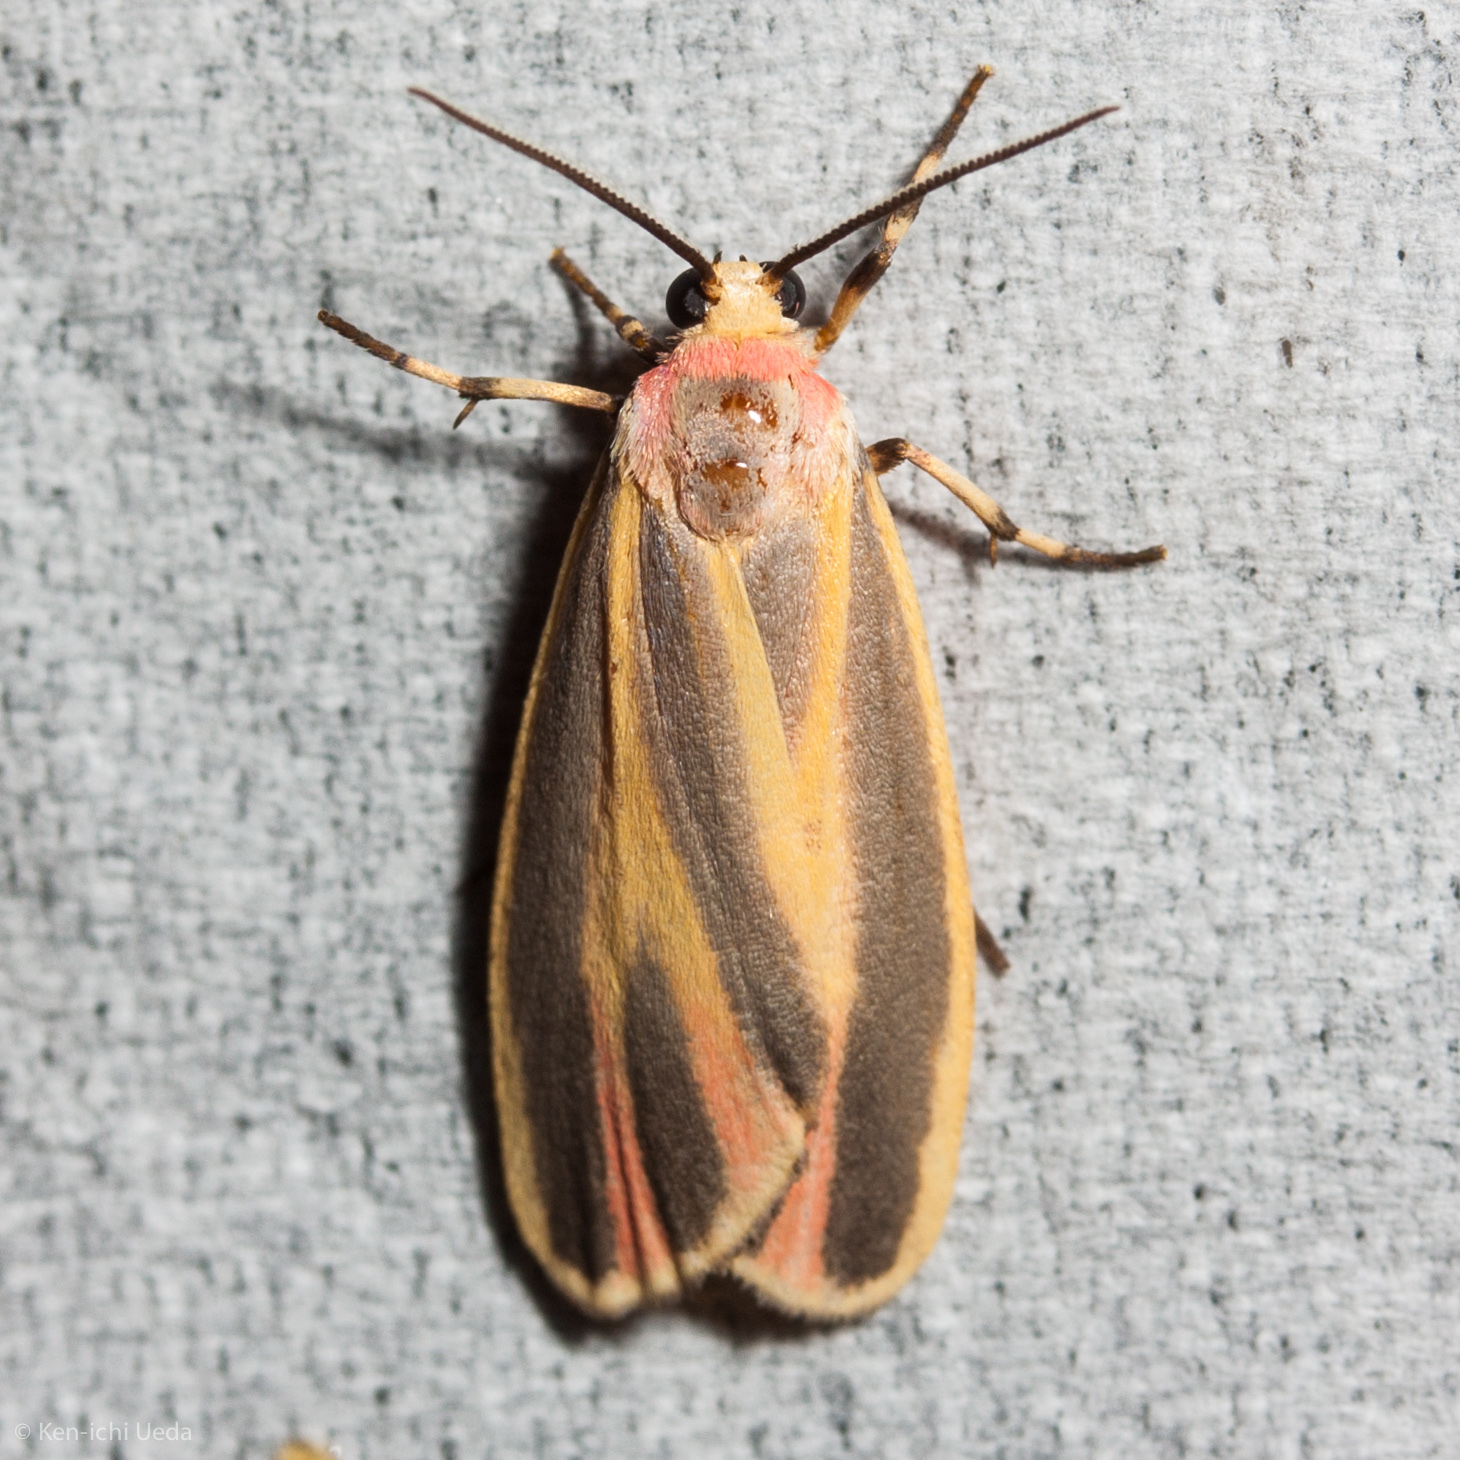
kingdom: Animalia
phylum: Arthropoda
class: Insecta
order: Lepidoptera
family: Erebidae
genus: Hypoprepia
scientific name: Hypoprepia fucosa
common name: Painted lichen moth
